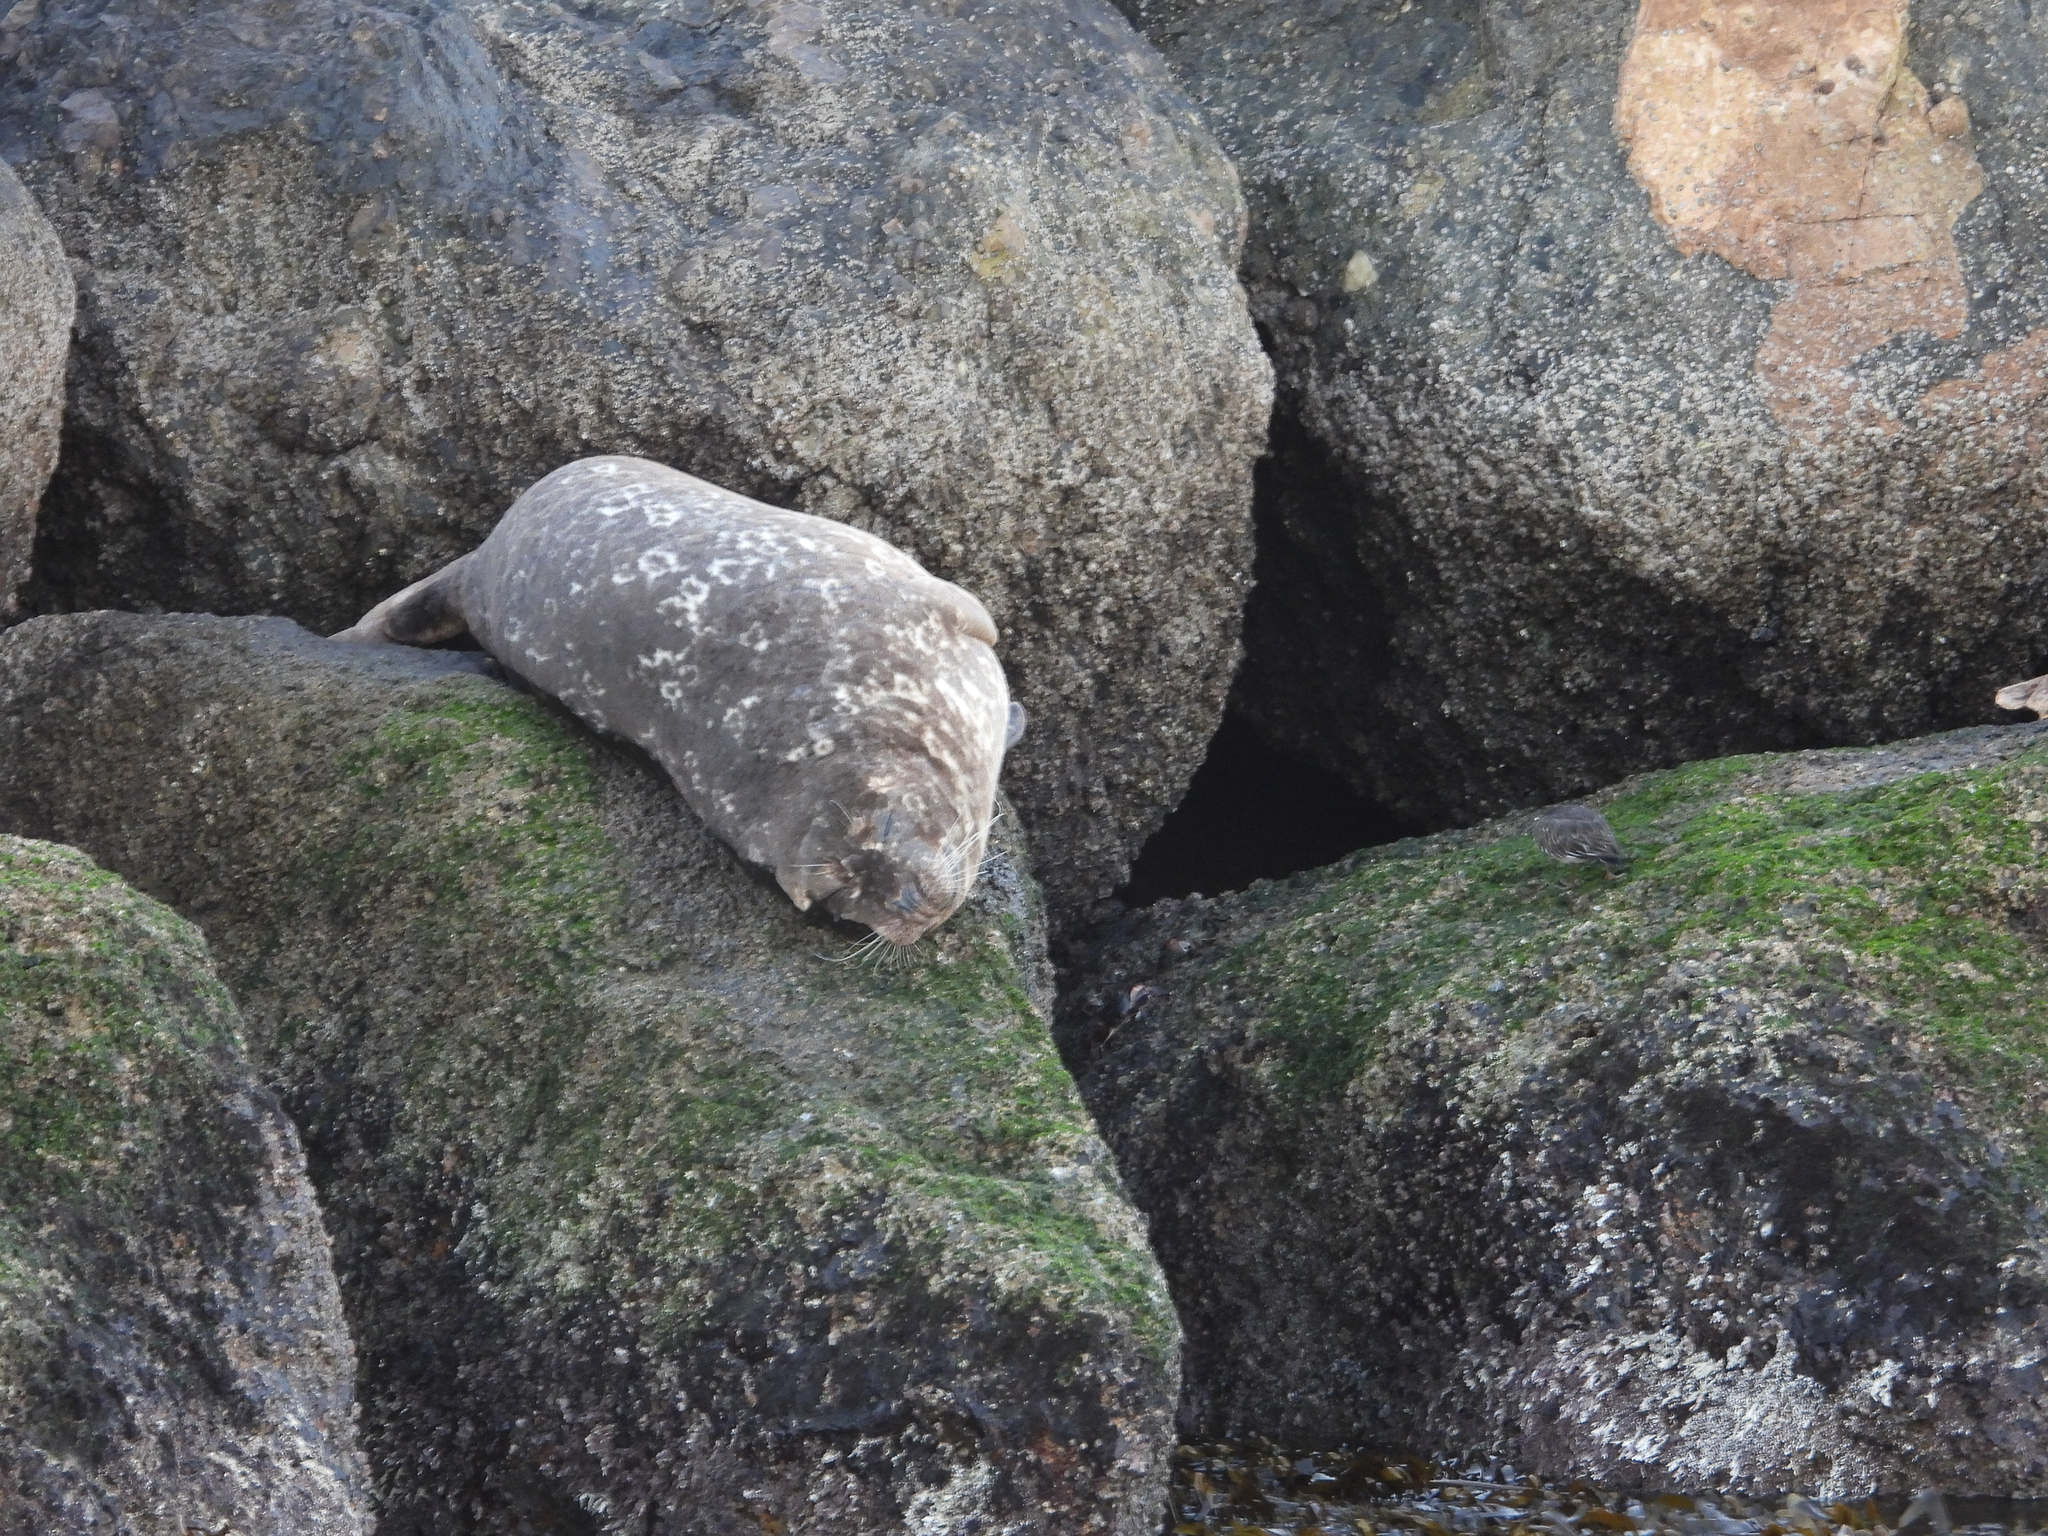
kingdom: Animalia
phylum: Chordata
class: Mammalia
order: Carnivora
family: Phocidae
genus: Phoca
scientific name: Phoca vitulina
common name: Harbor seal
